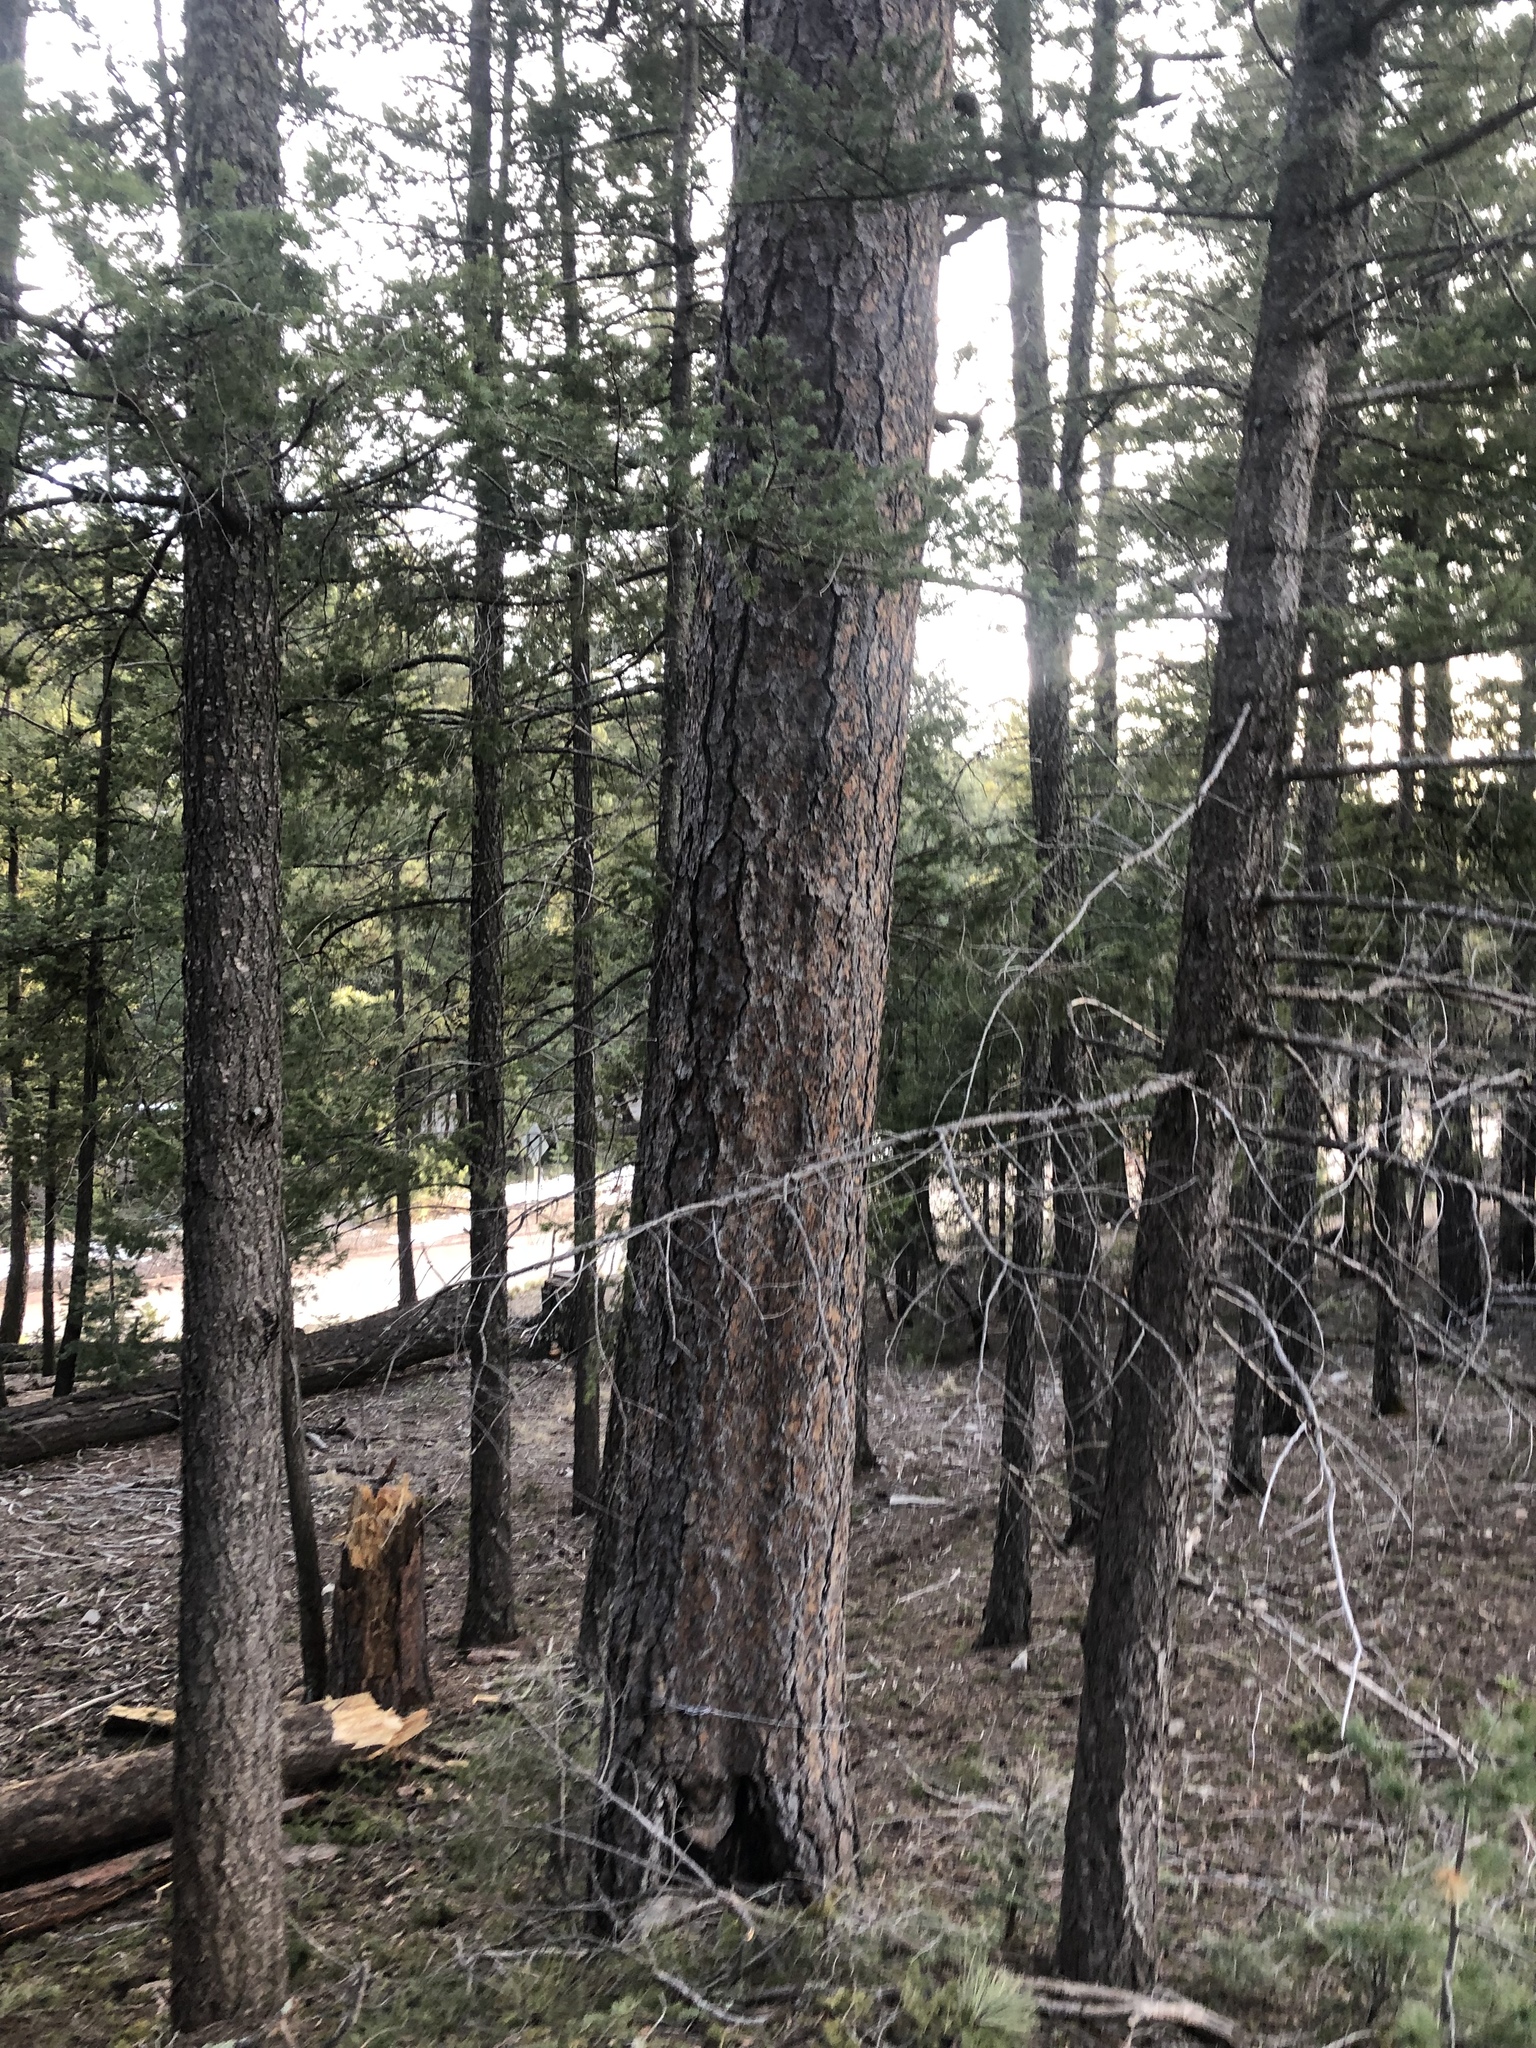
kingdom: Plantae
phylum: Tracheophyta
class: Pinopsida
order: Pinales
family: Pinaceae
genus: Pinus
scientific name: Pinus ponderosa
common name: Western yellow-pine
